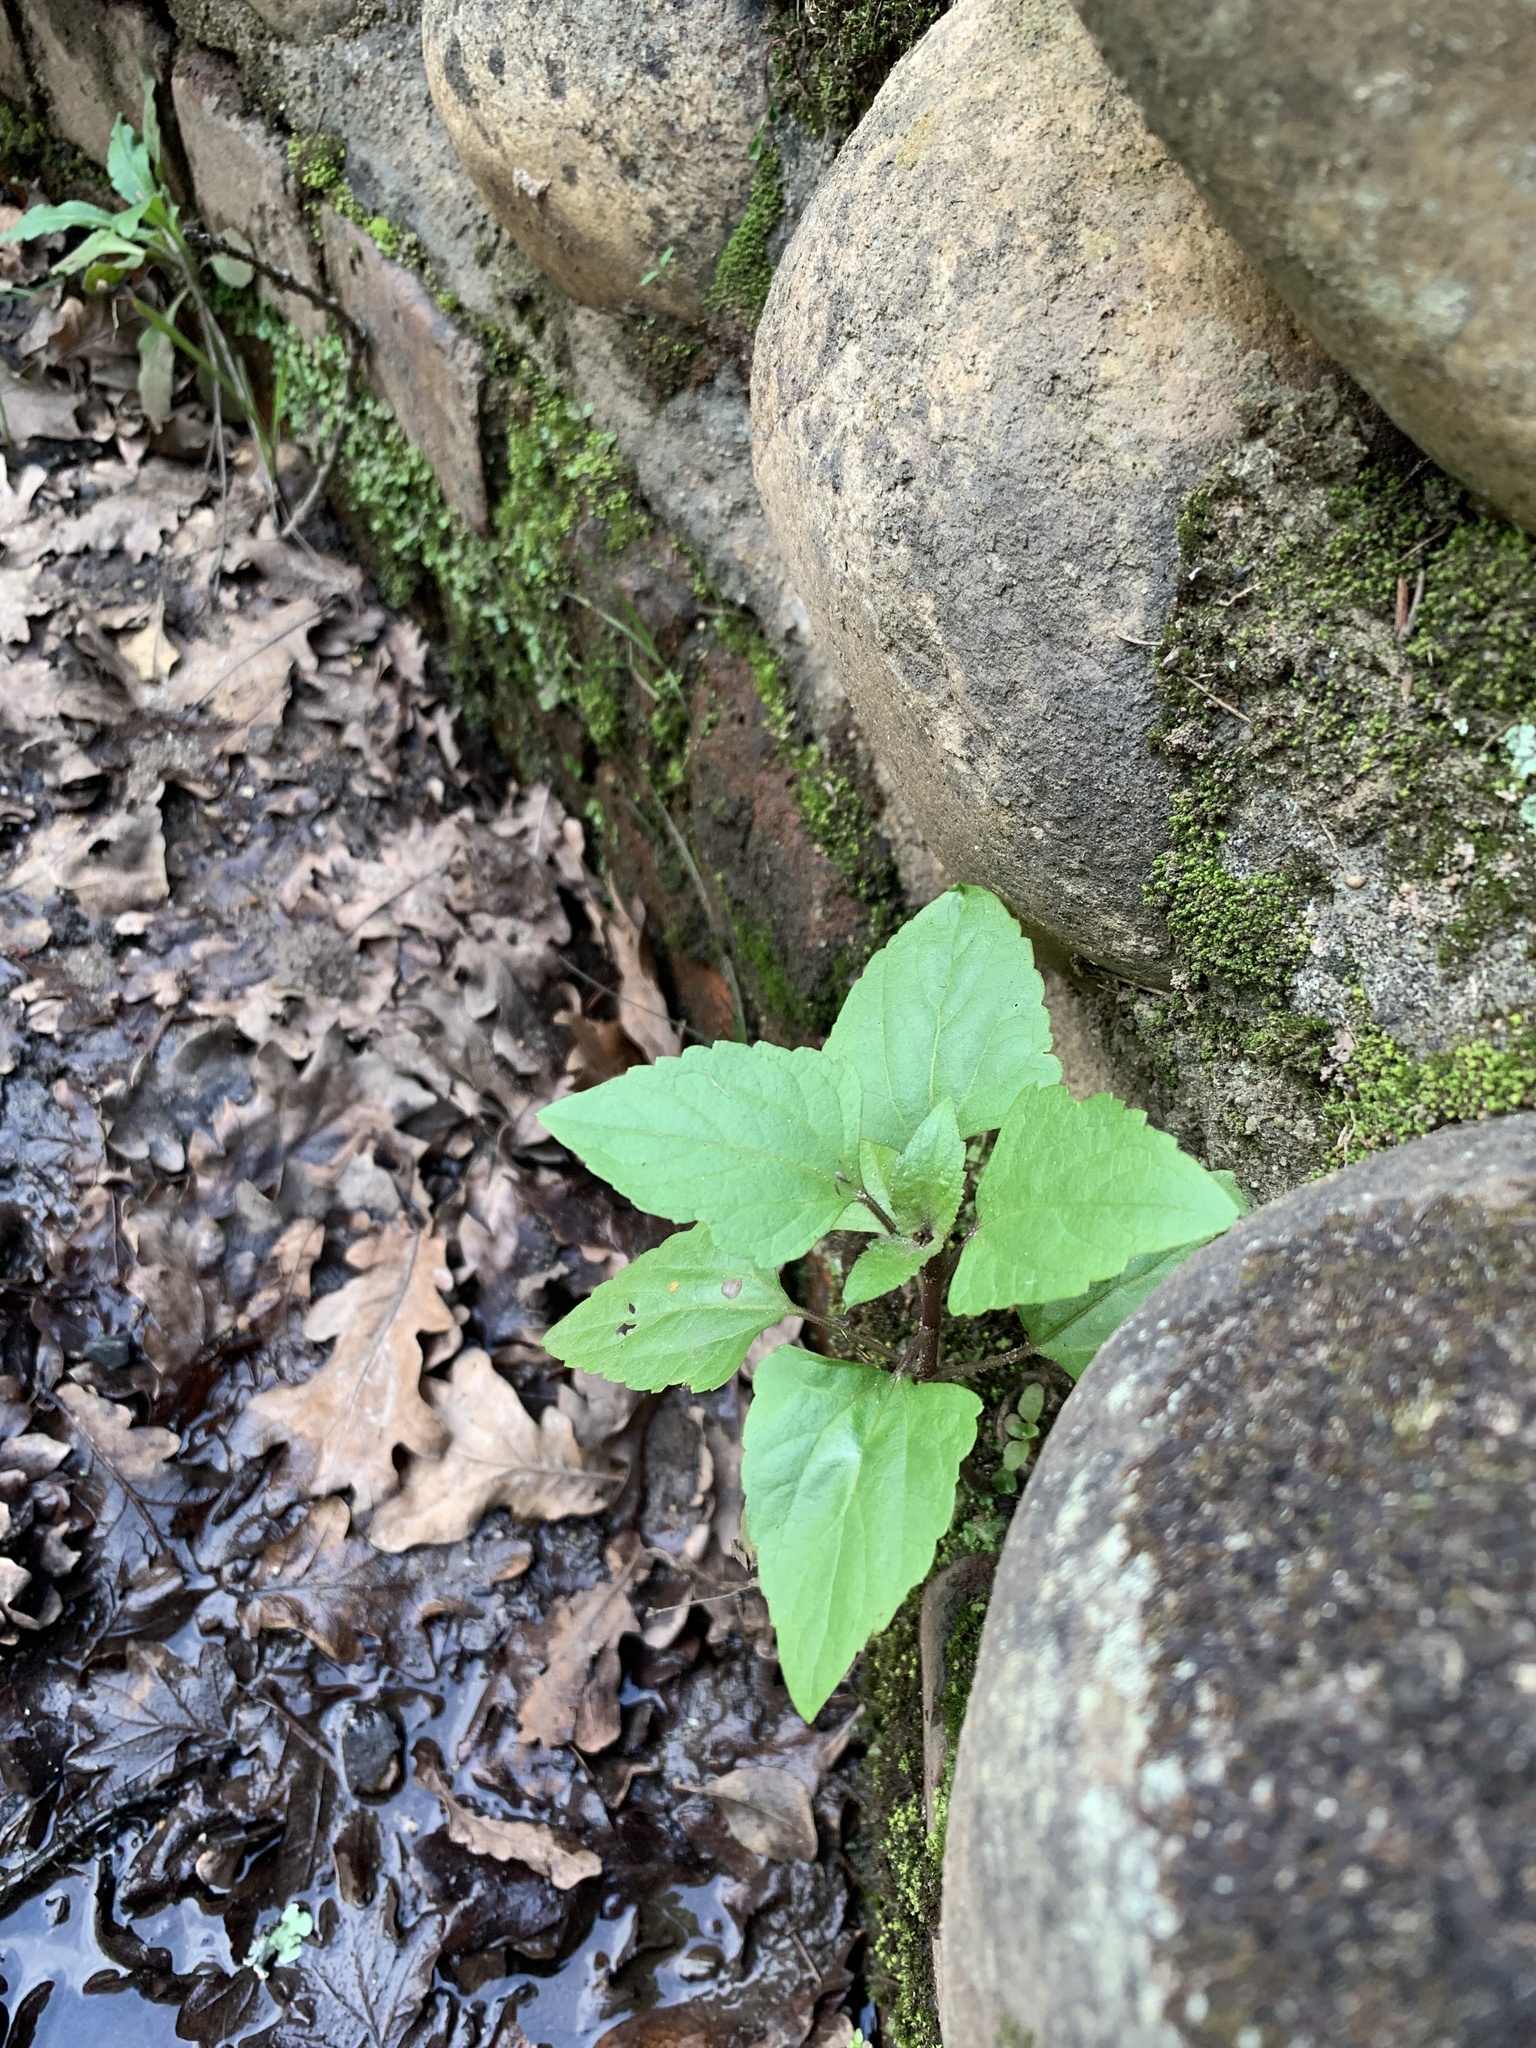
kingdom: Plantae
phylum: Tracheophyta
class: Magnoliopsida
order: Asterales
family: Asteraceae
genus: Ageratina
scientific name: Ageratina adenophora
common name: Sticky snakeroot
